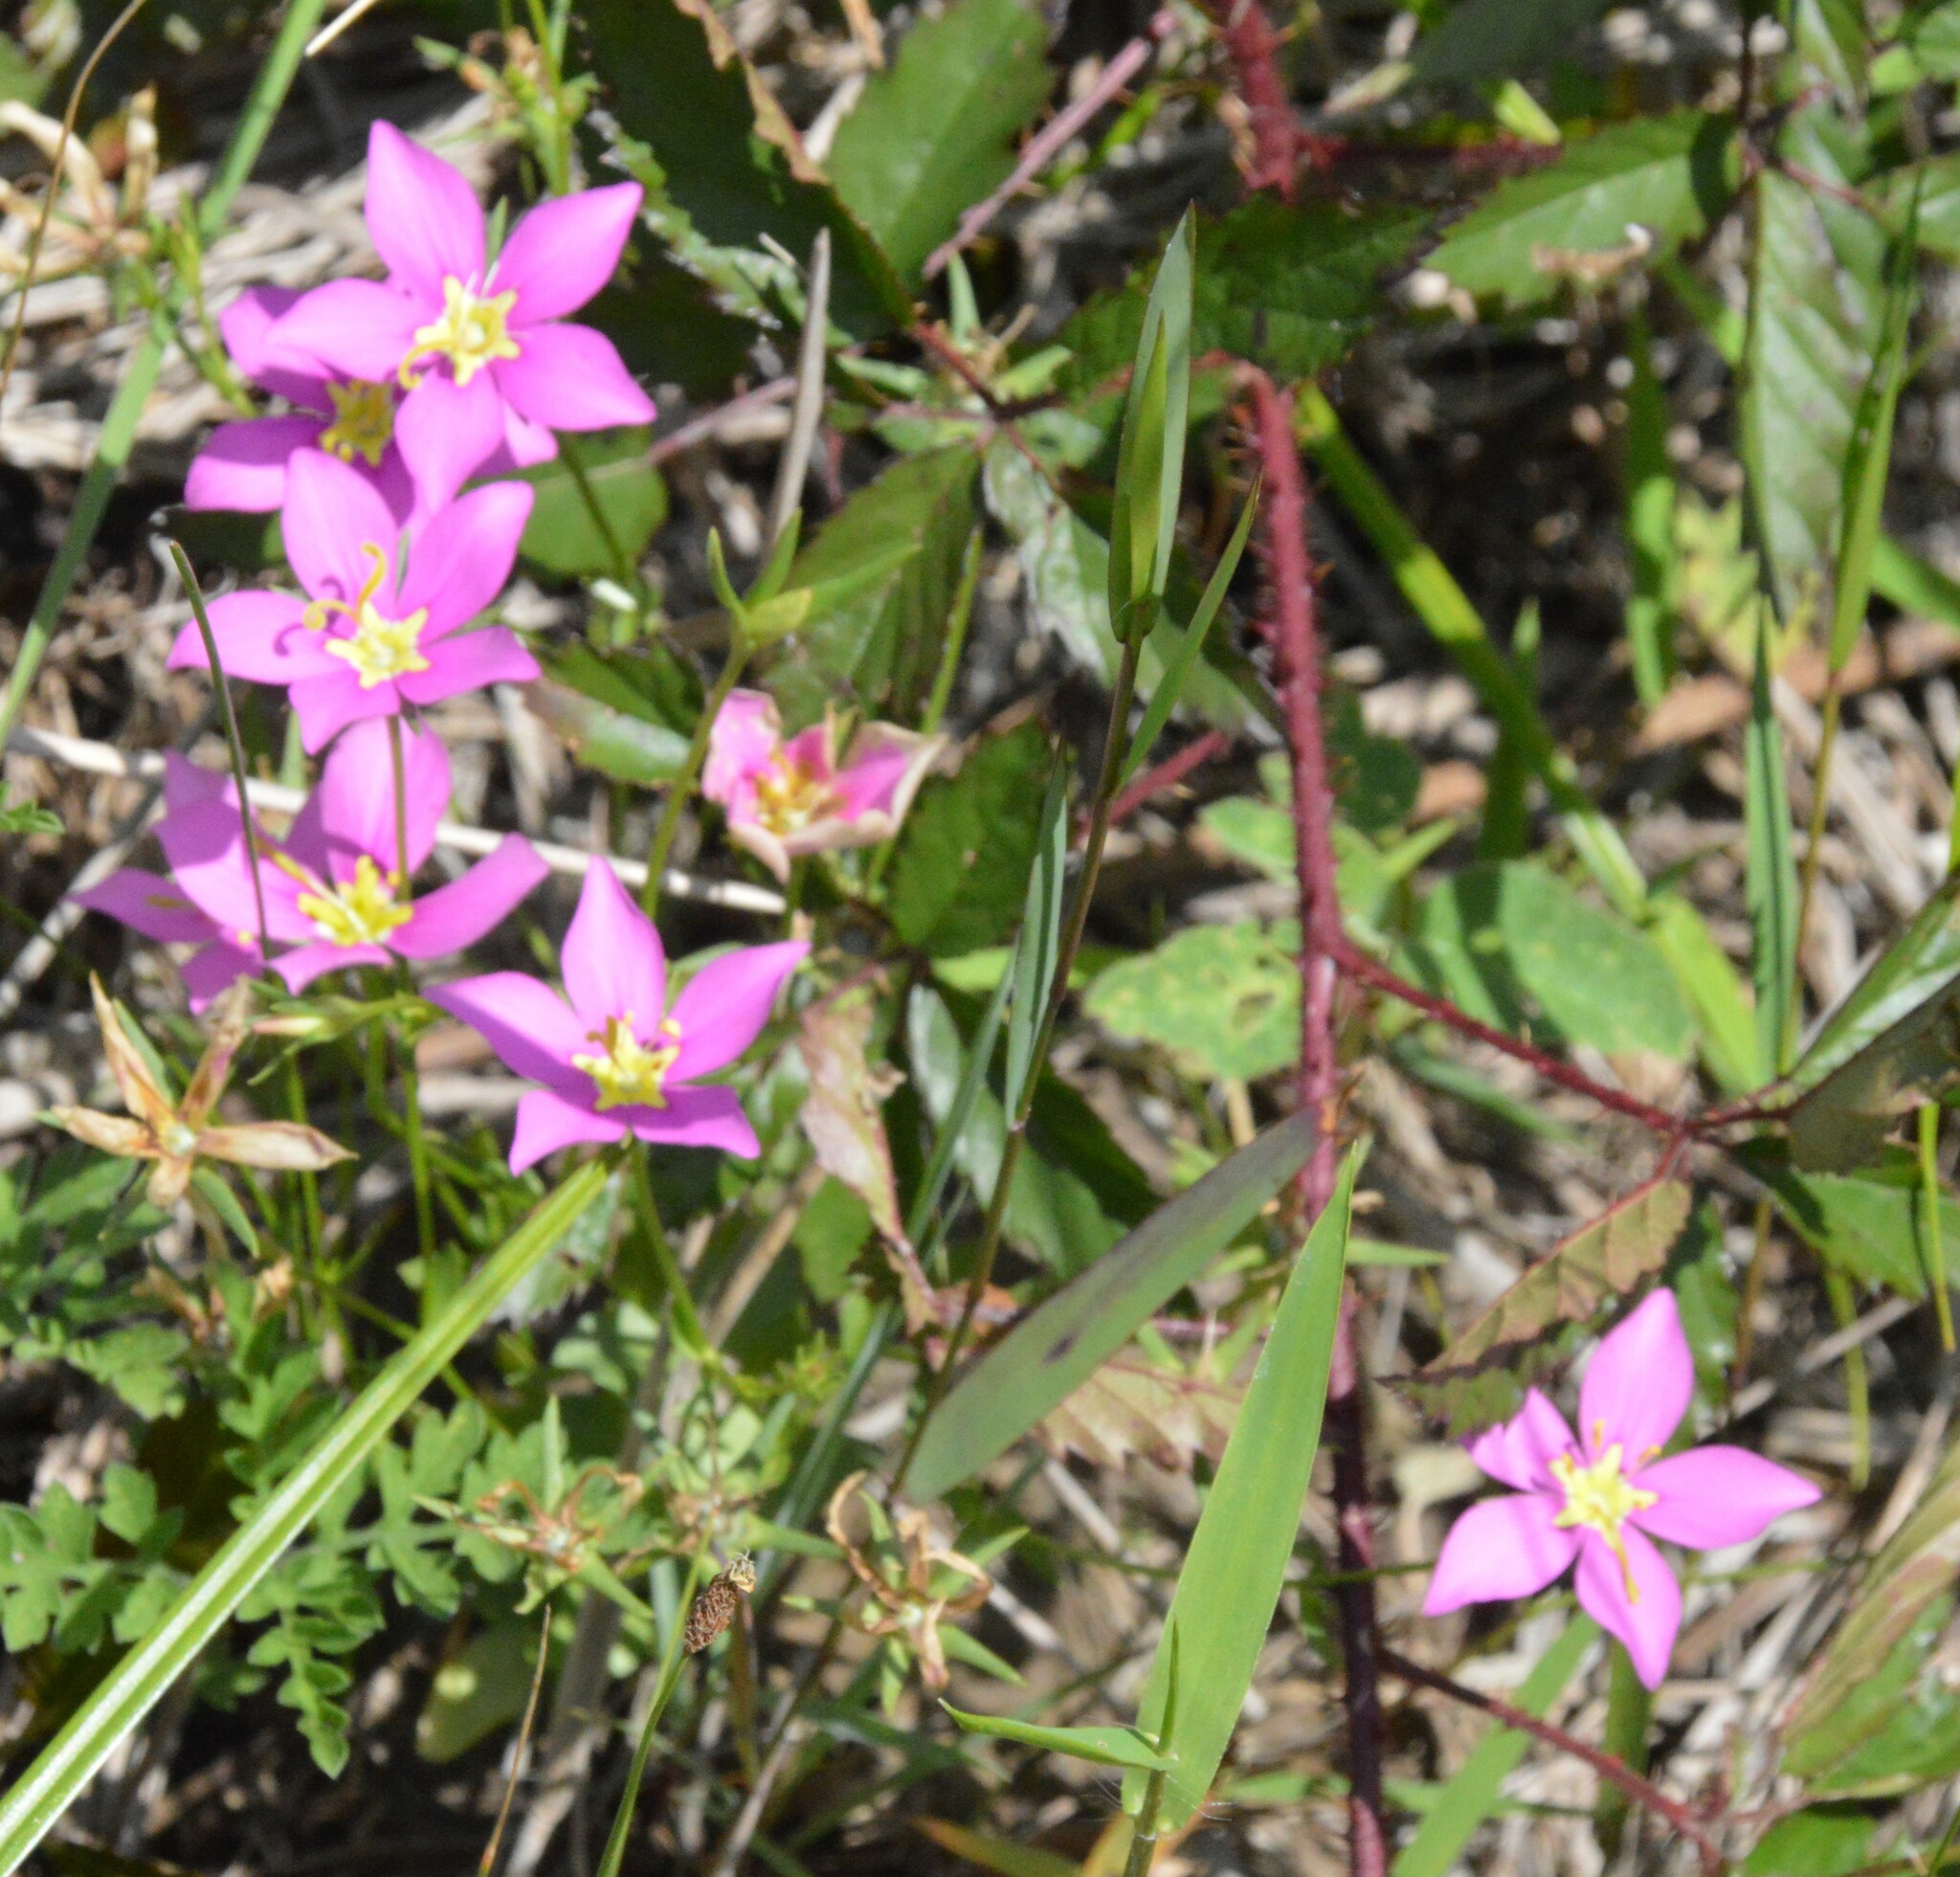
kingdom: Plantae
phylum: Tracheophyta
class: Magnoliopsida
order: Gentianales
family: Gentianaceae
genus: Sabatia
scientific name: Sabatia campestris
